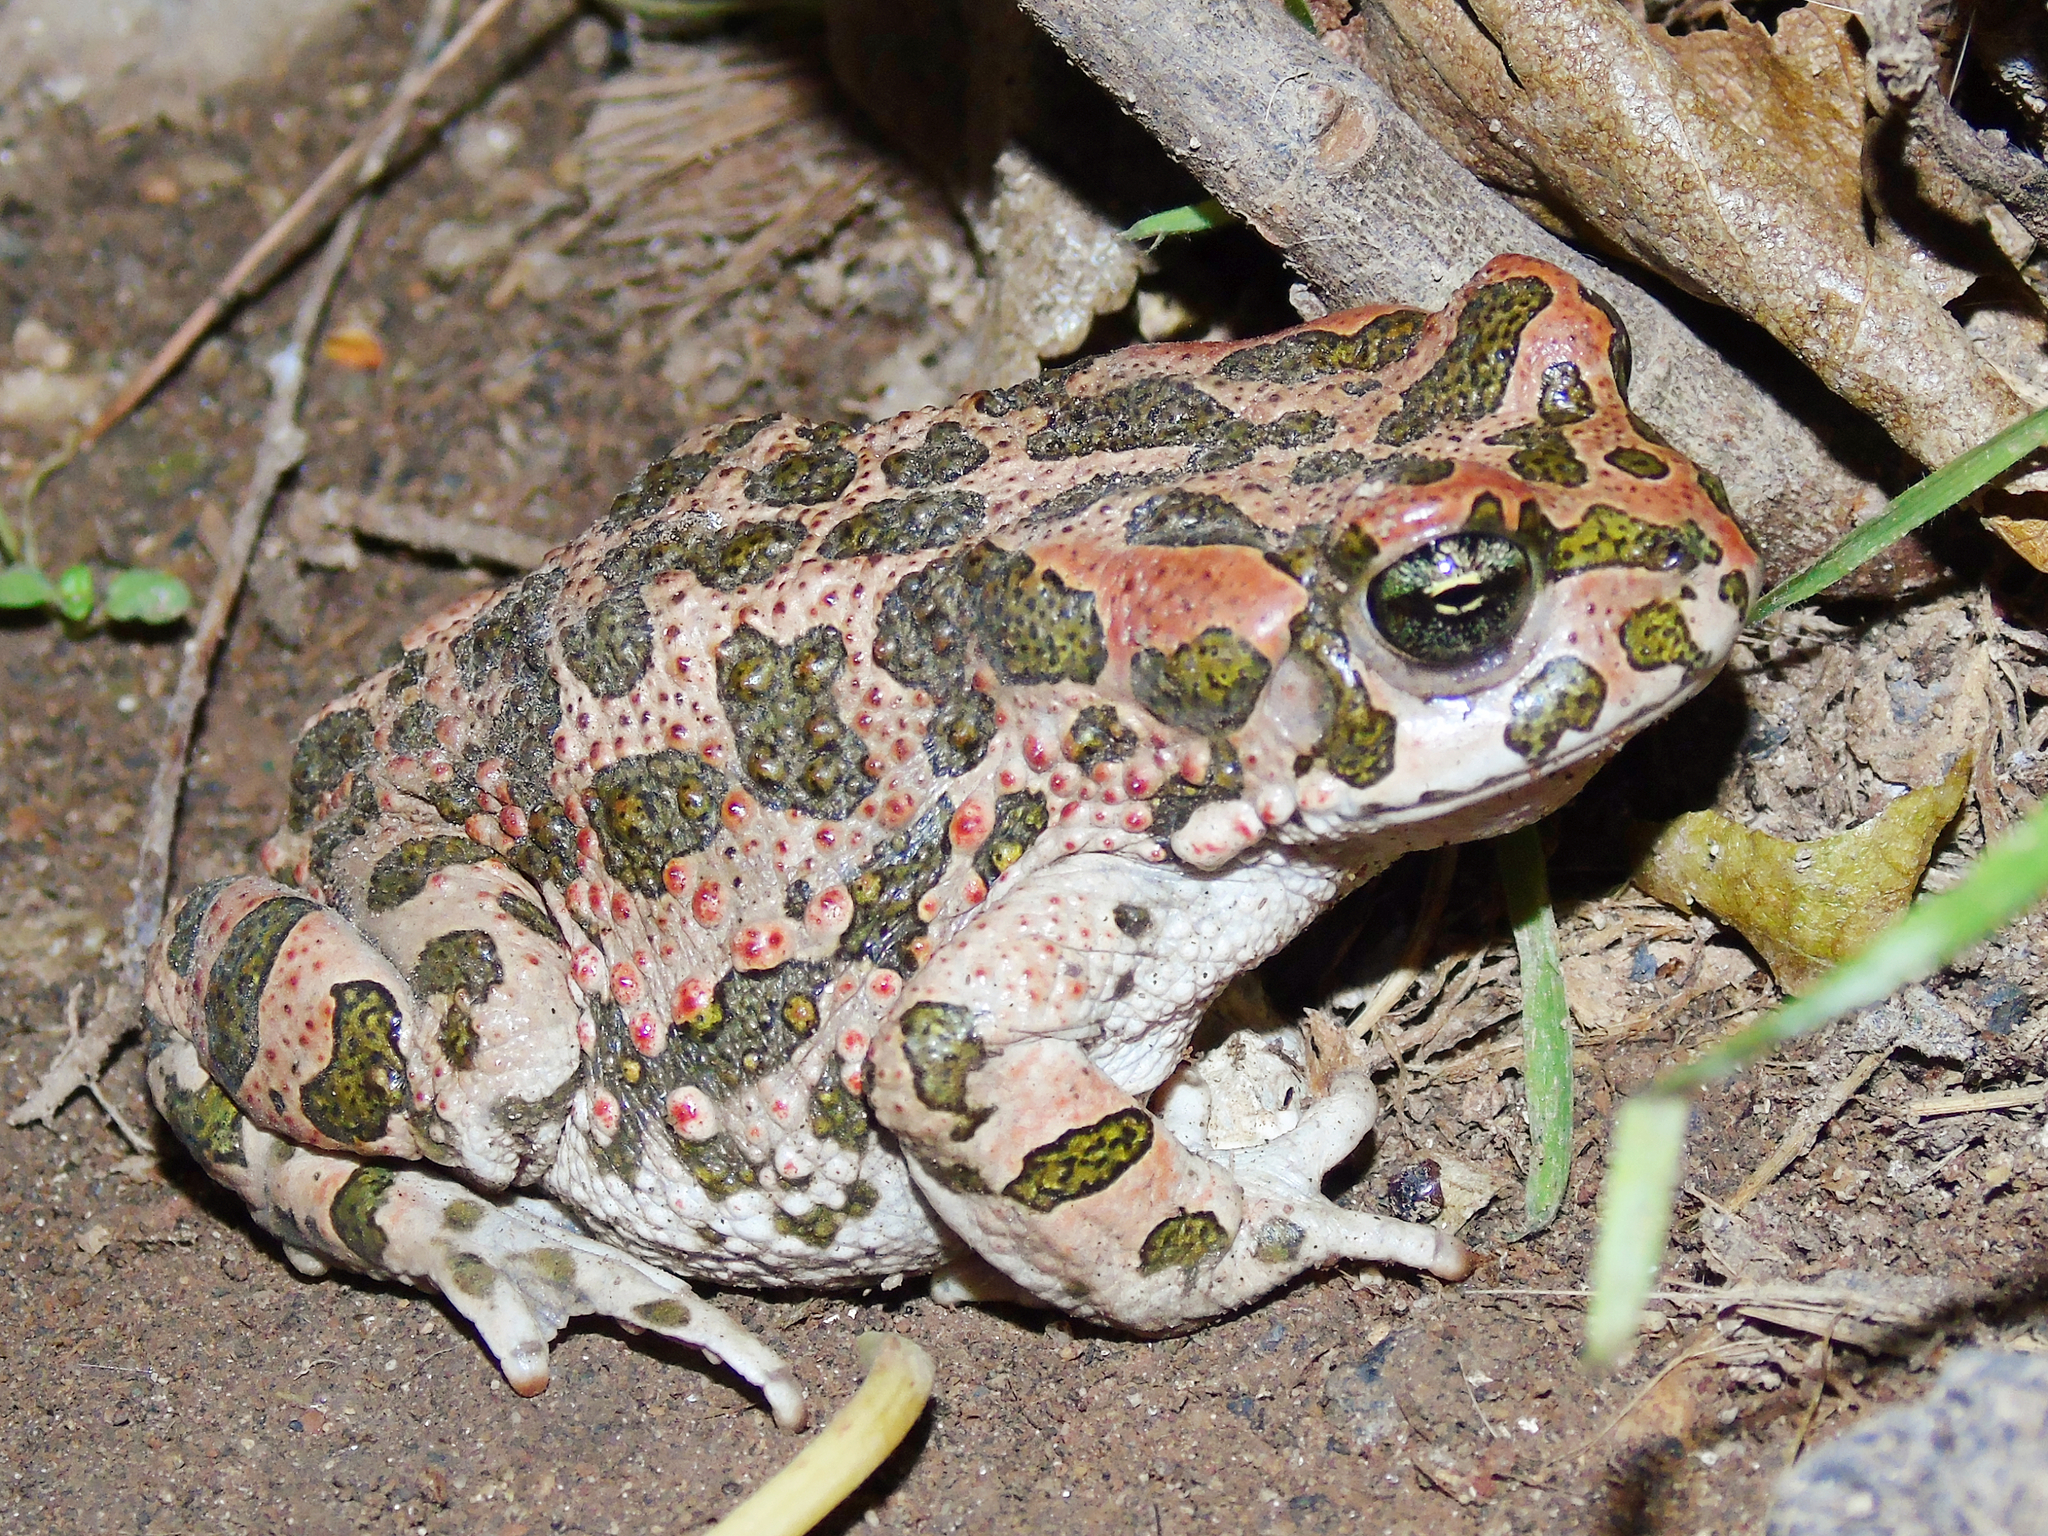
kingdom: Animalia
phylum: Chordata
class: Amphibia
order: Anura
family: Bufonidae
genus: Bufotes
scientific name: Bufotes viridis
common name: European green toad
